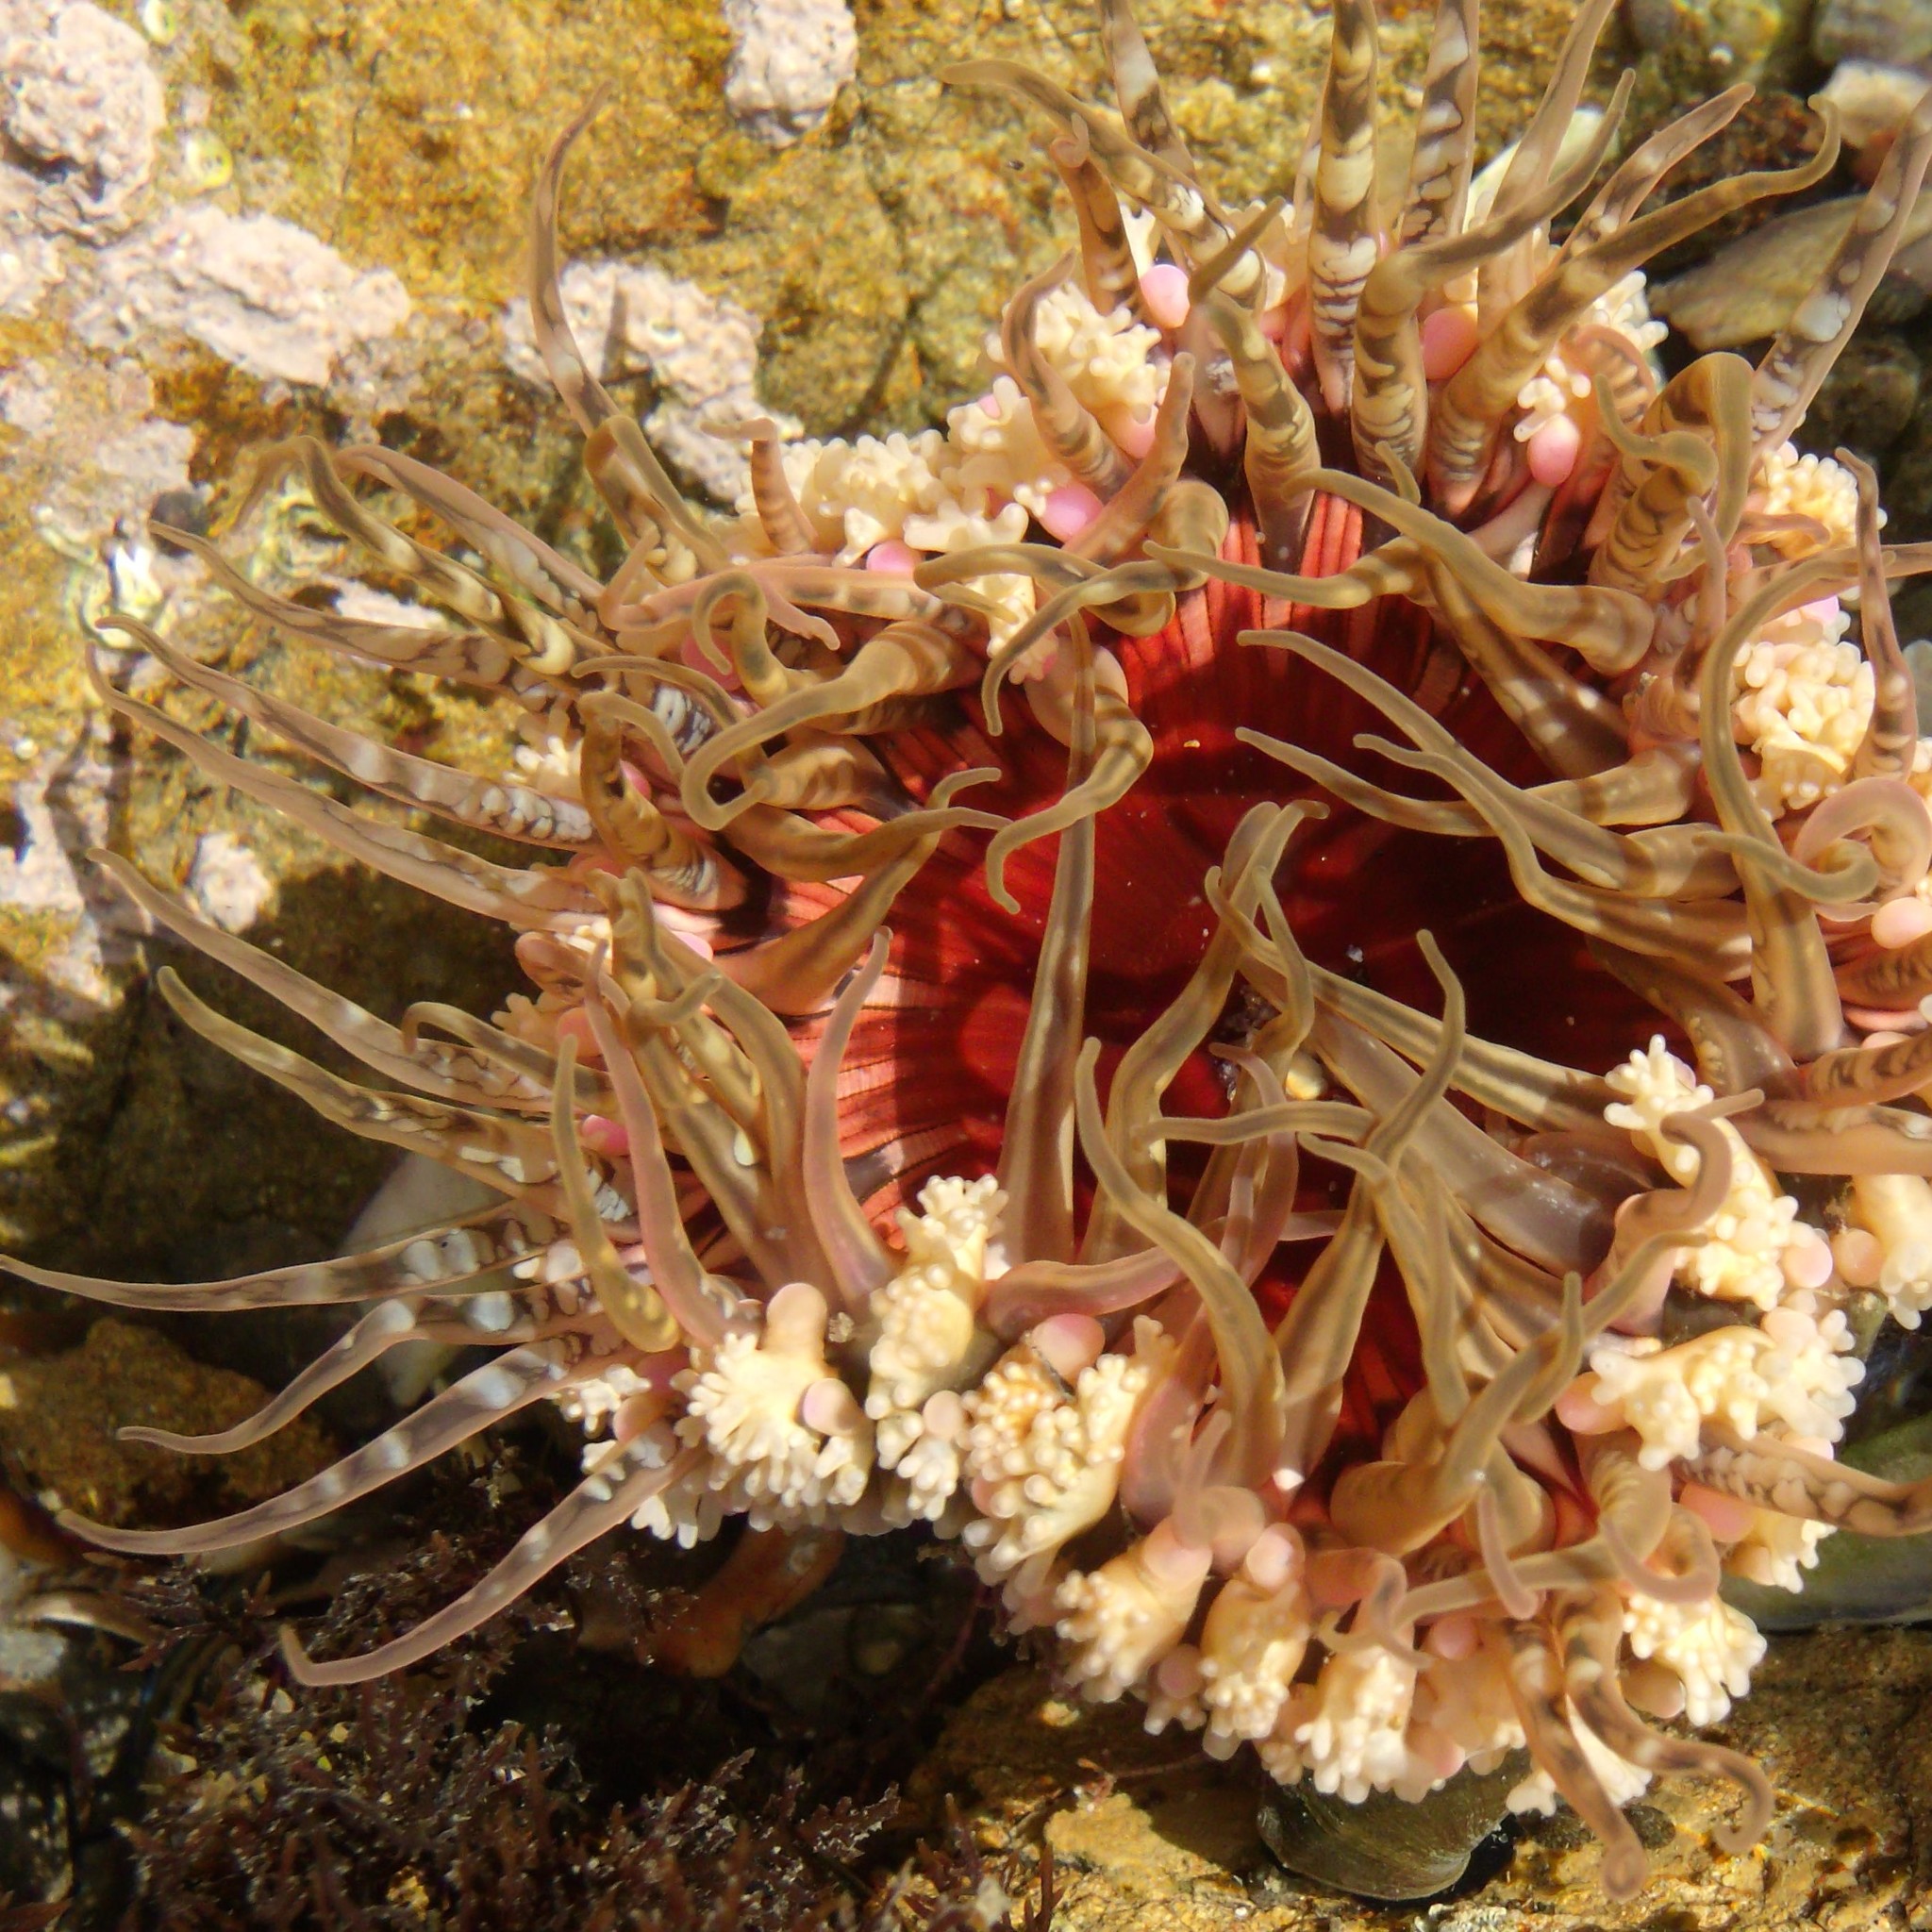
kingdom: Animalia
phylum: Cnidaria
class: Anthozoa
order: Actiniaria
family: Actiniidae
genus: Oulactis
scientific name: Oulactis muscosa
